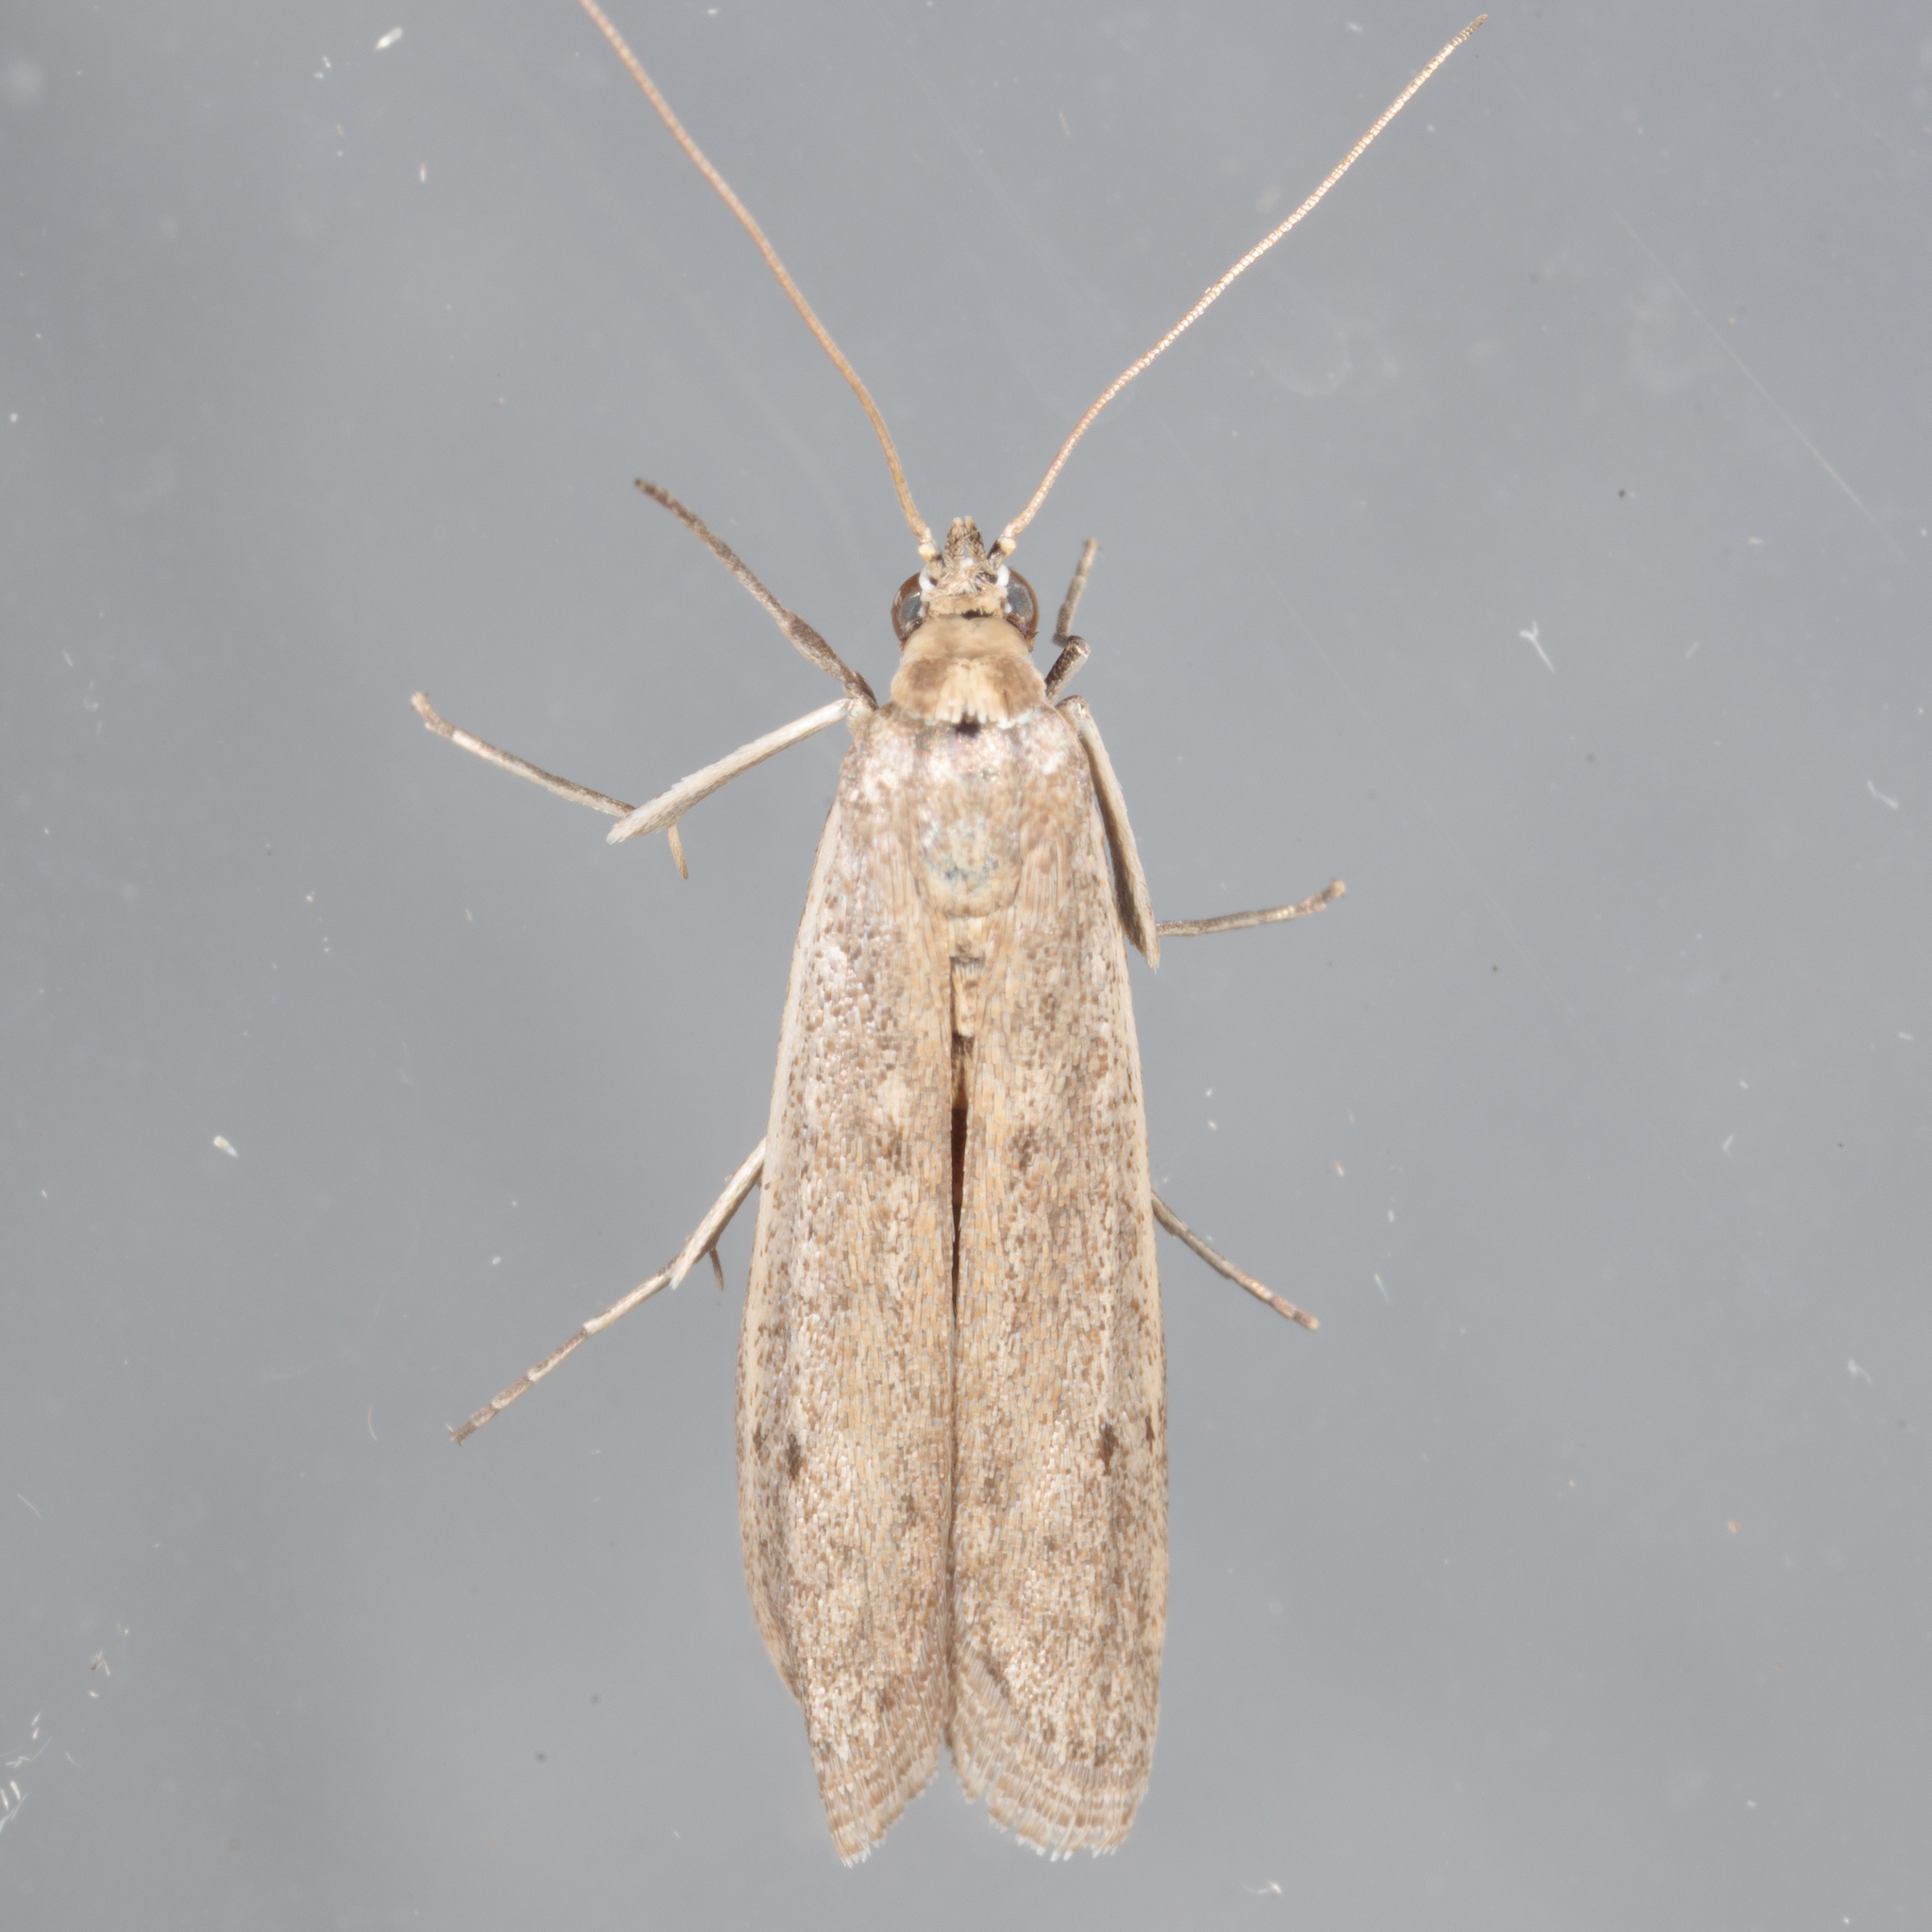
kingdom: Animalia
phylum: Arthropoda
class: Insecta
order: Lepidoptera
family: Pyralidae
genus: Homoeosoma
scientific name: Homoeosoma electella
